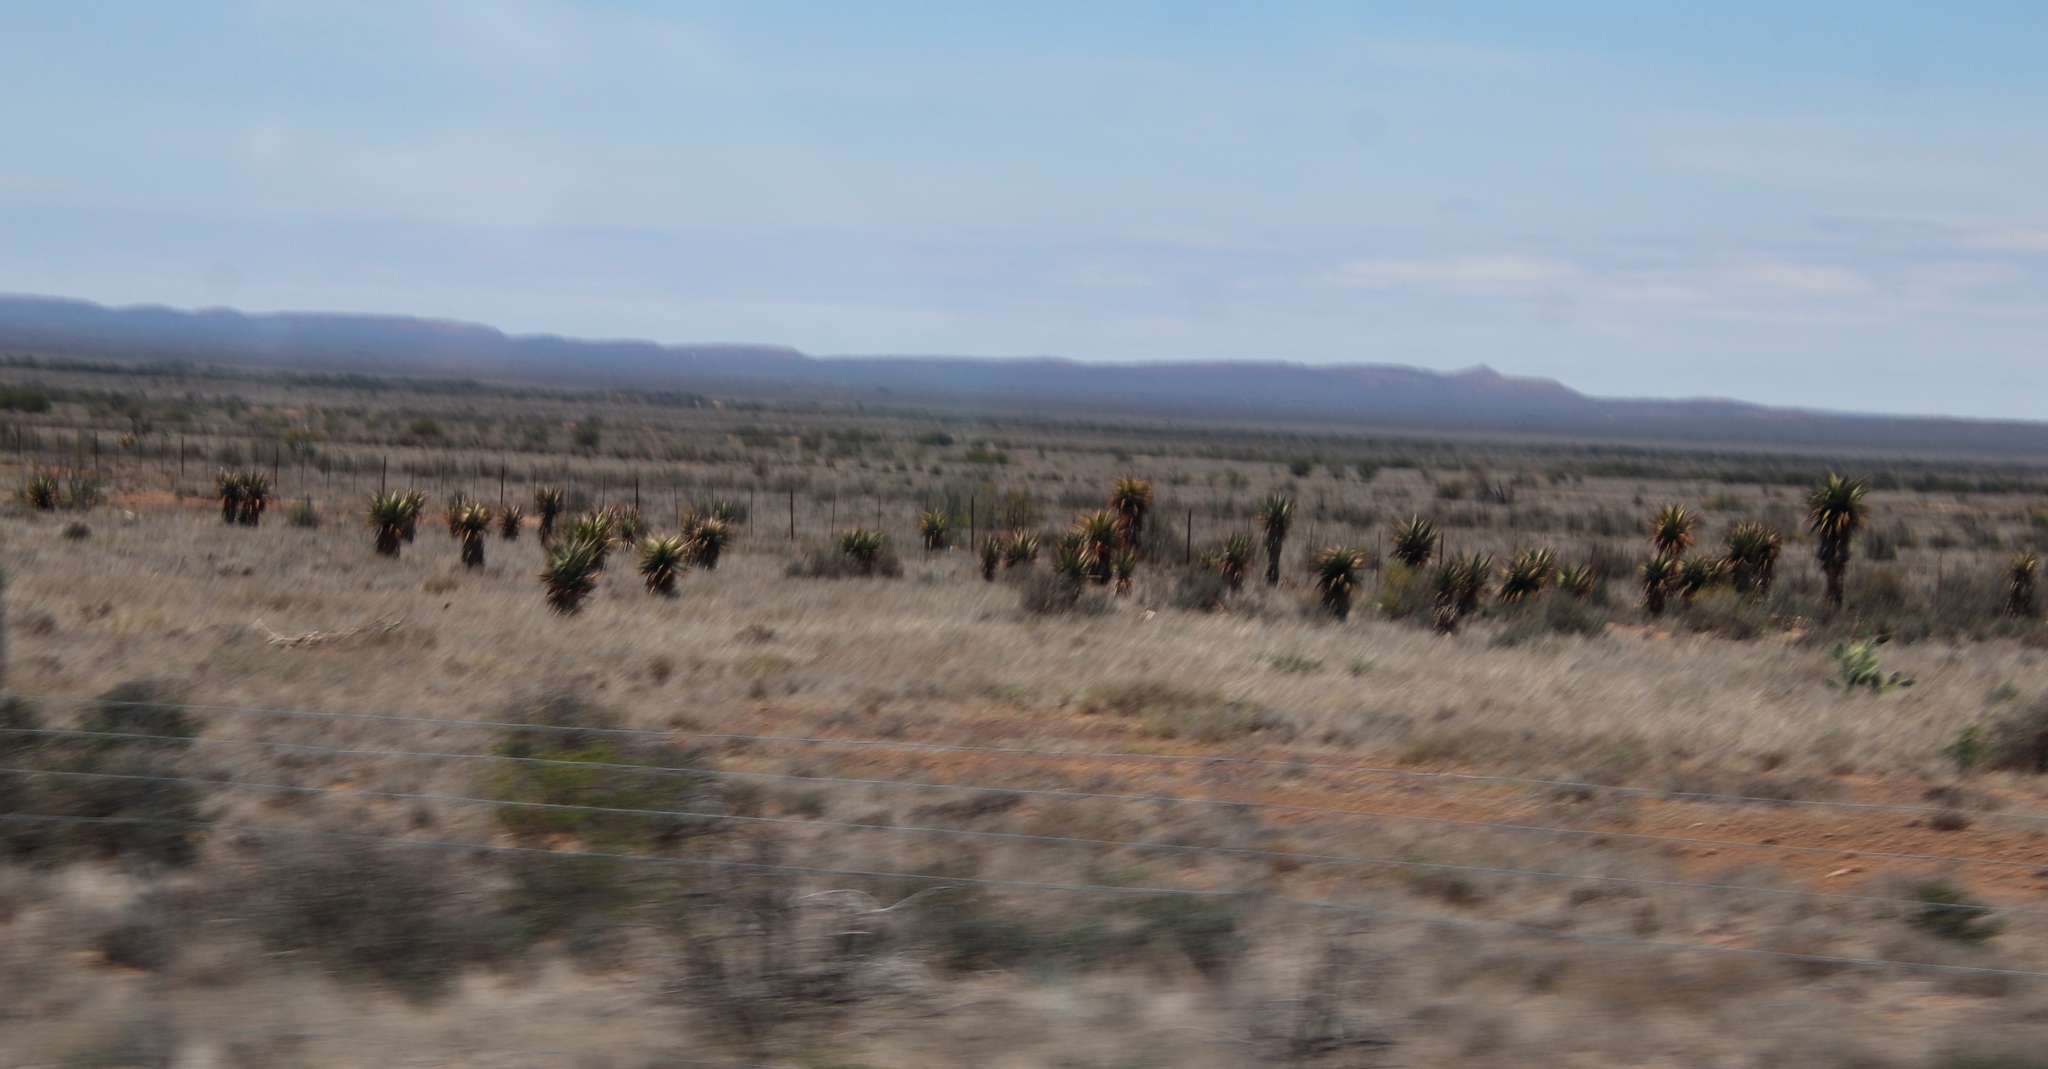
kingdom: Plantae
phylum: Tracheophyta
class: Liliopsida
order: Asparagales
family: Asphodelaceae
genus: Aloe
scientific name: Aloe ferox
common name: Bitter aloe
